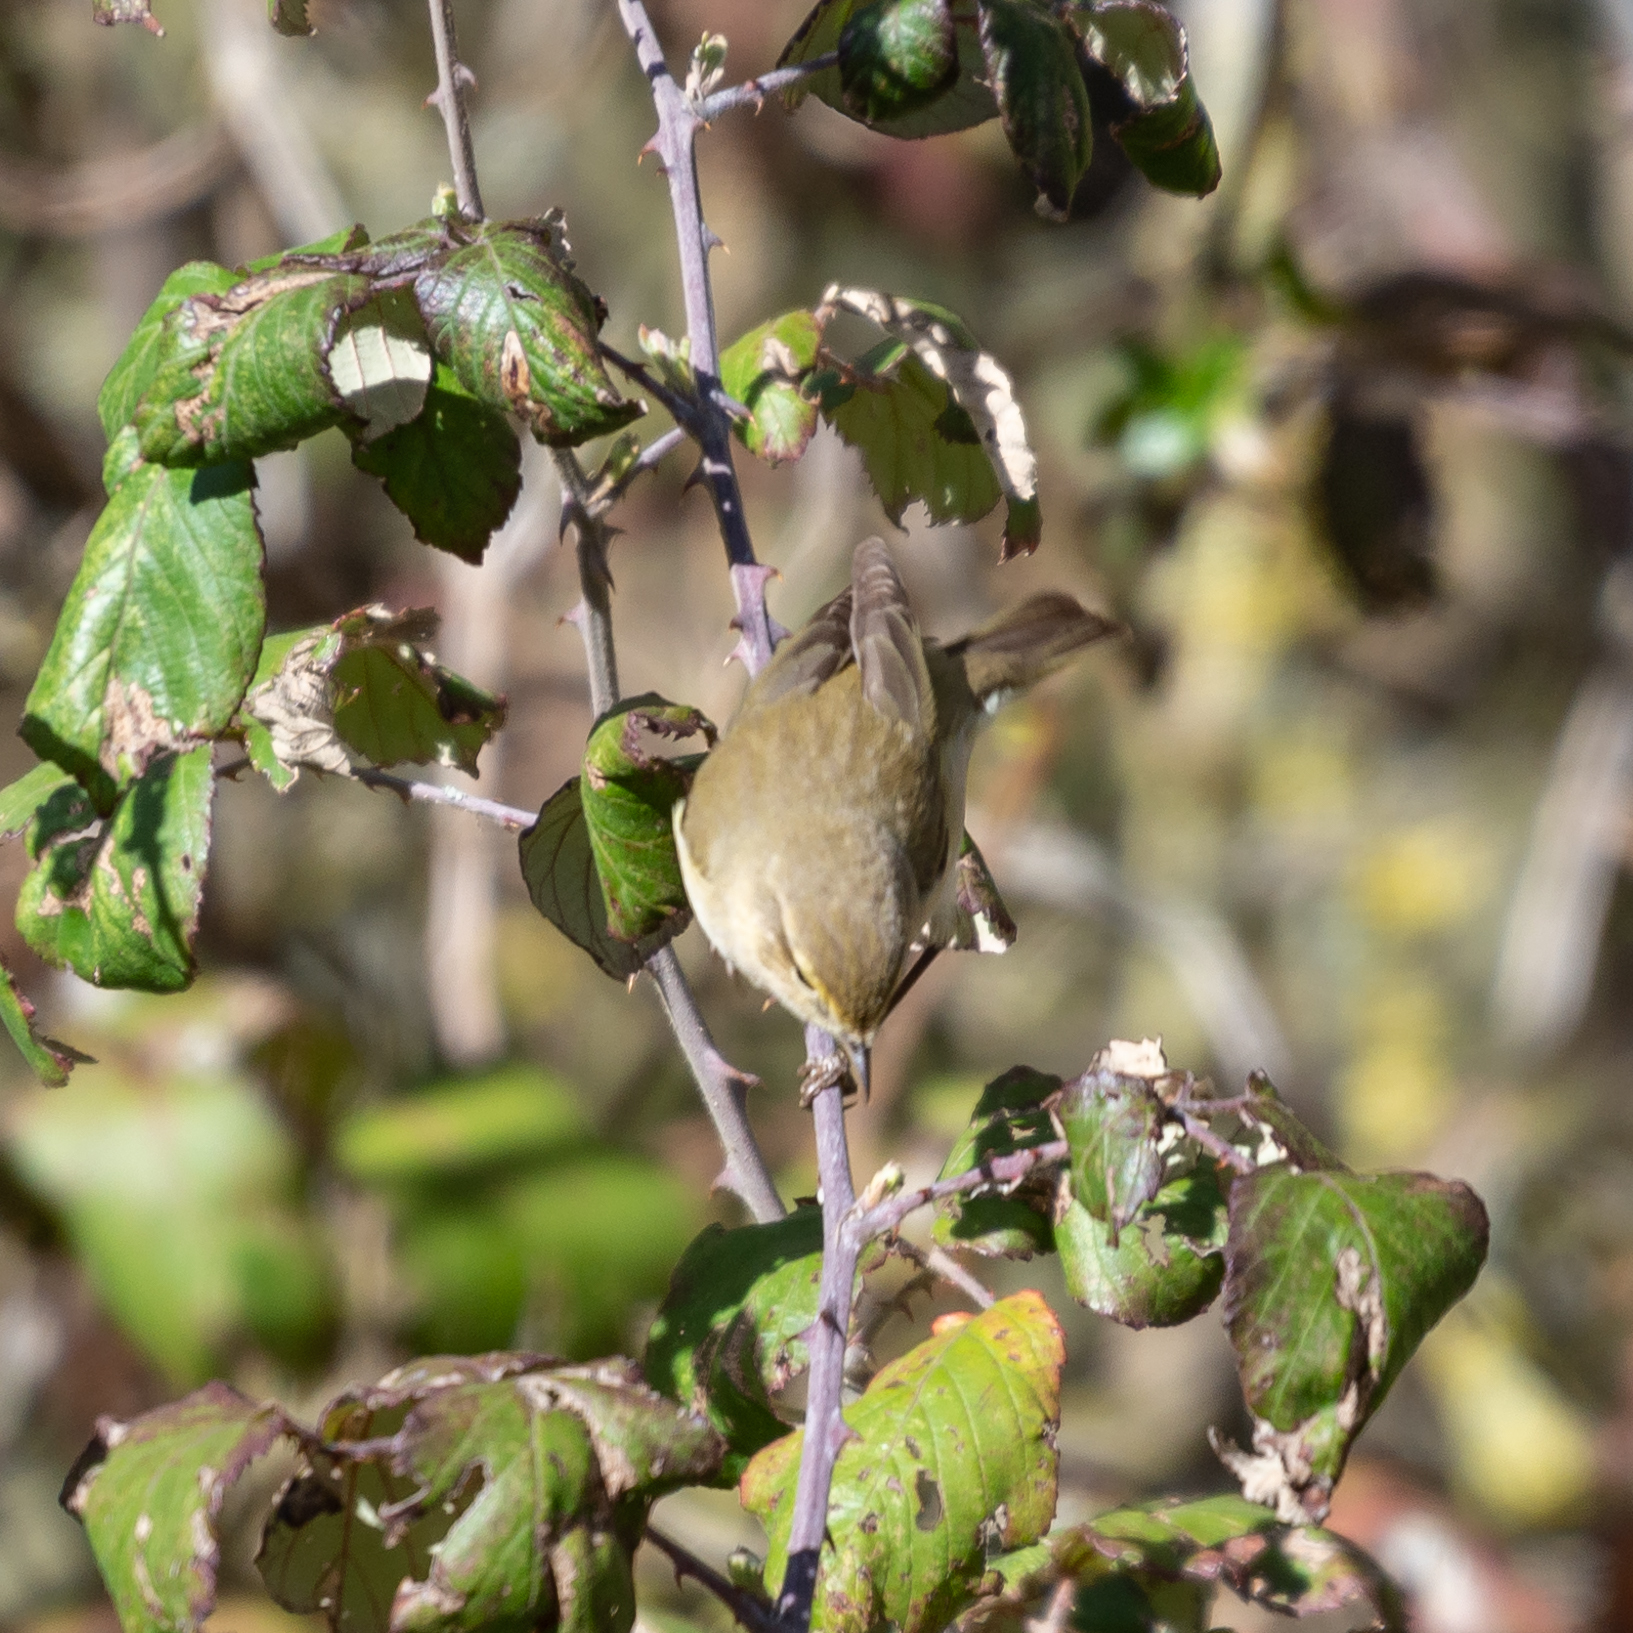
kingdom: Animalia
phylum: Chordata
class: Aves
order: Passeriformes
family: Phylloscopidae
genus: Phylloscopus
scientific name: Phylloscopus ibericus
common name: Iberian chiffchaff
